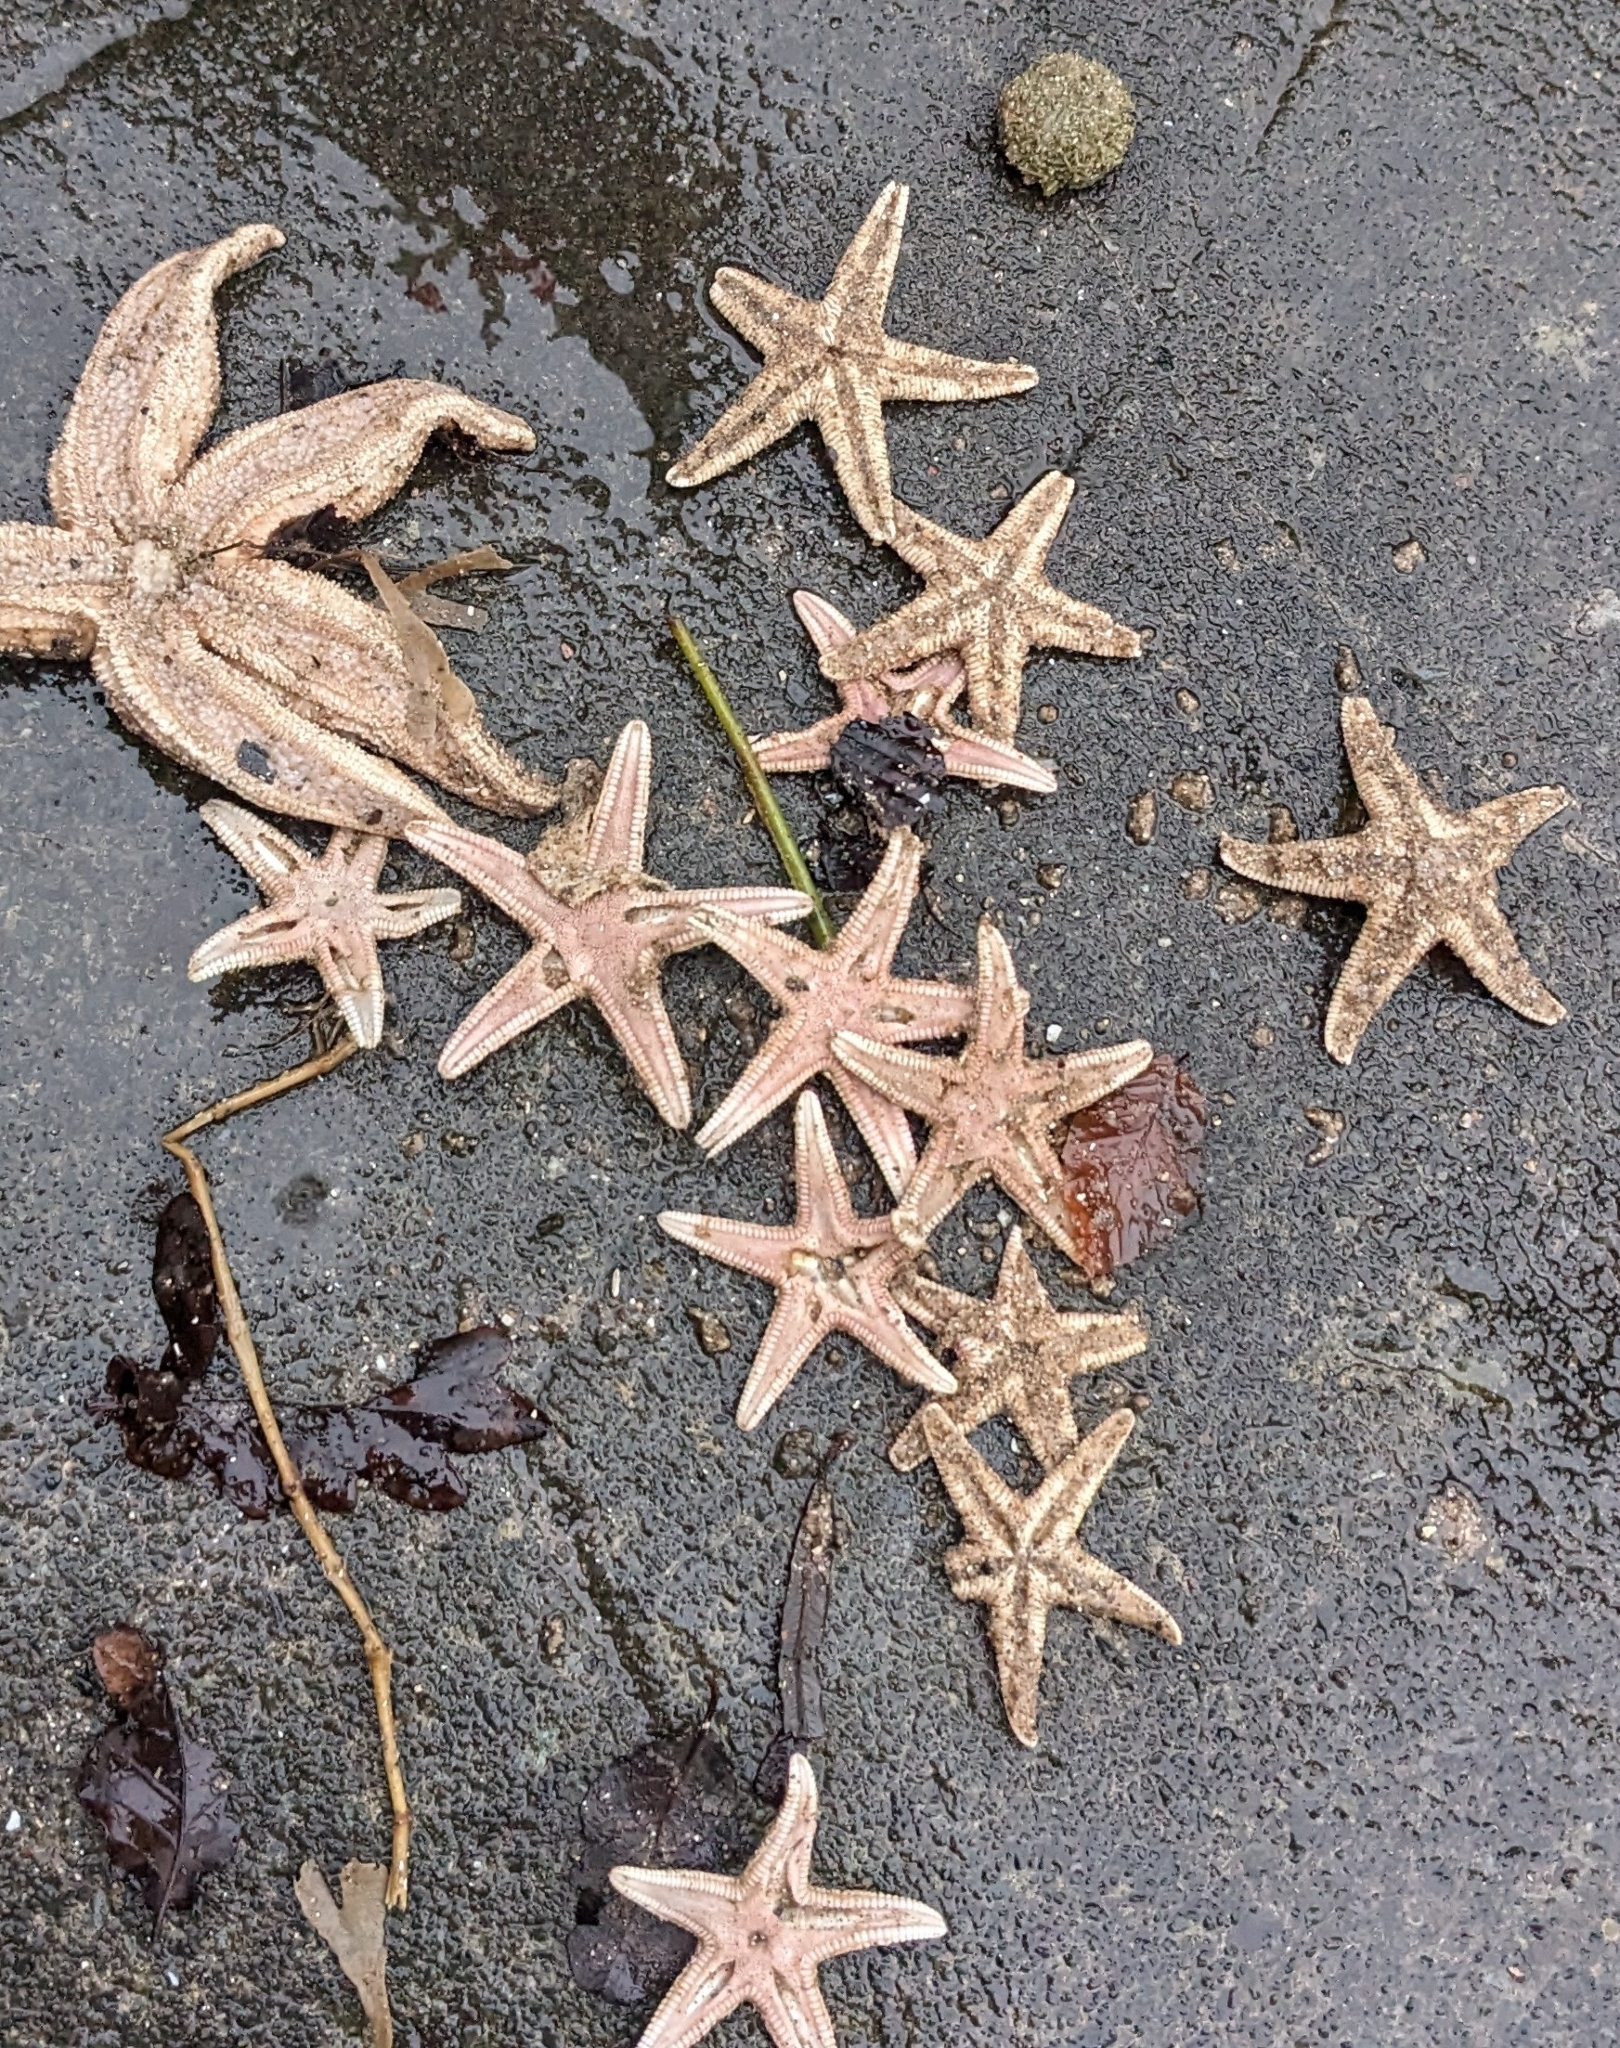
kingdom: Animalia
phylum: Echinodermata
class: Asteroidea
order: Paxillosida
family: Astropectinidae
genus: Astropecten
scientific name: Astropecten irregularis
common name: Sand star
